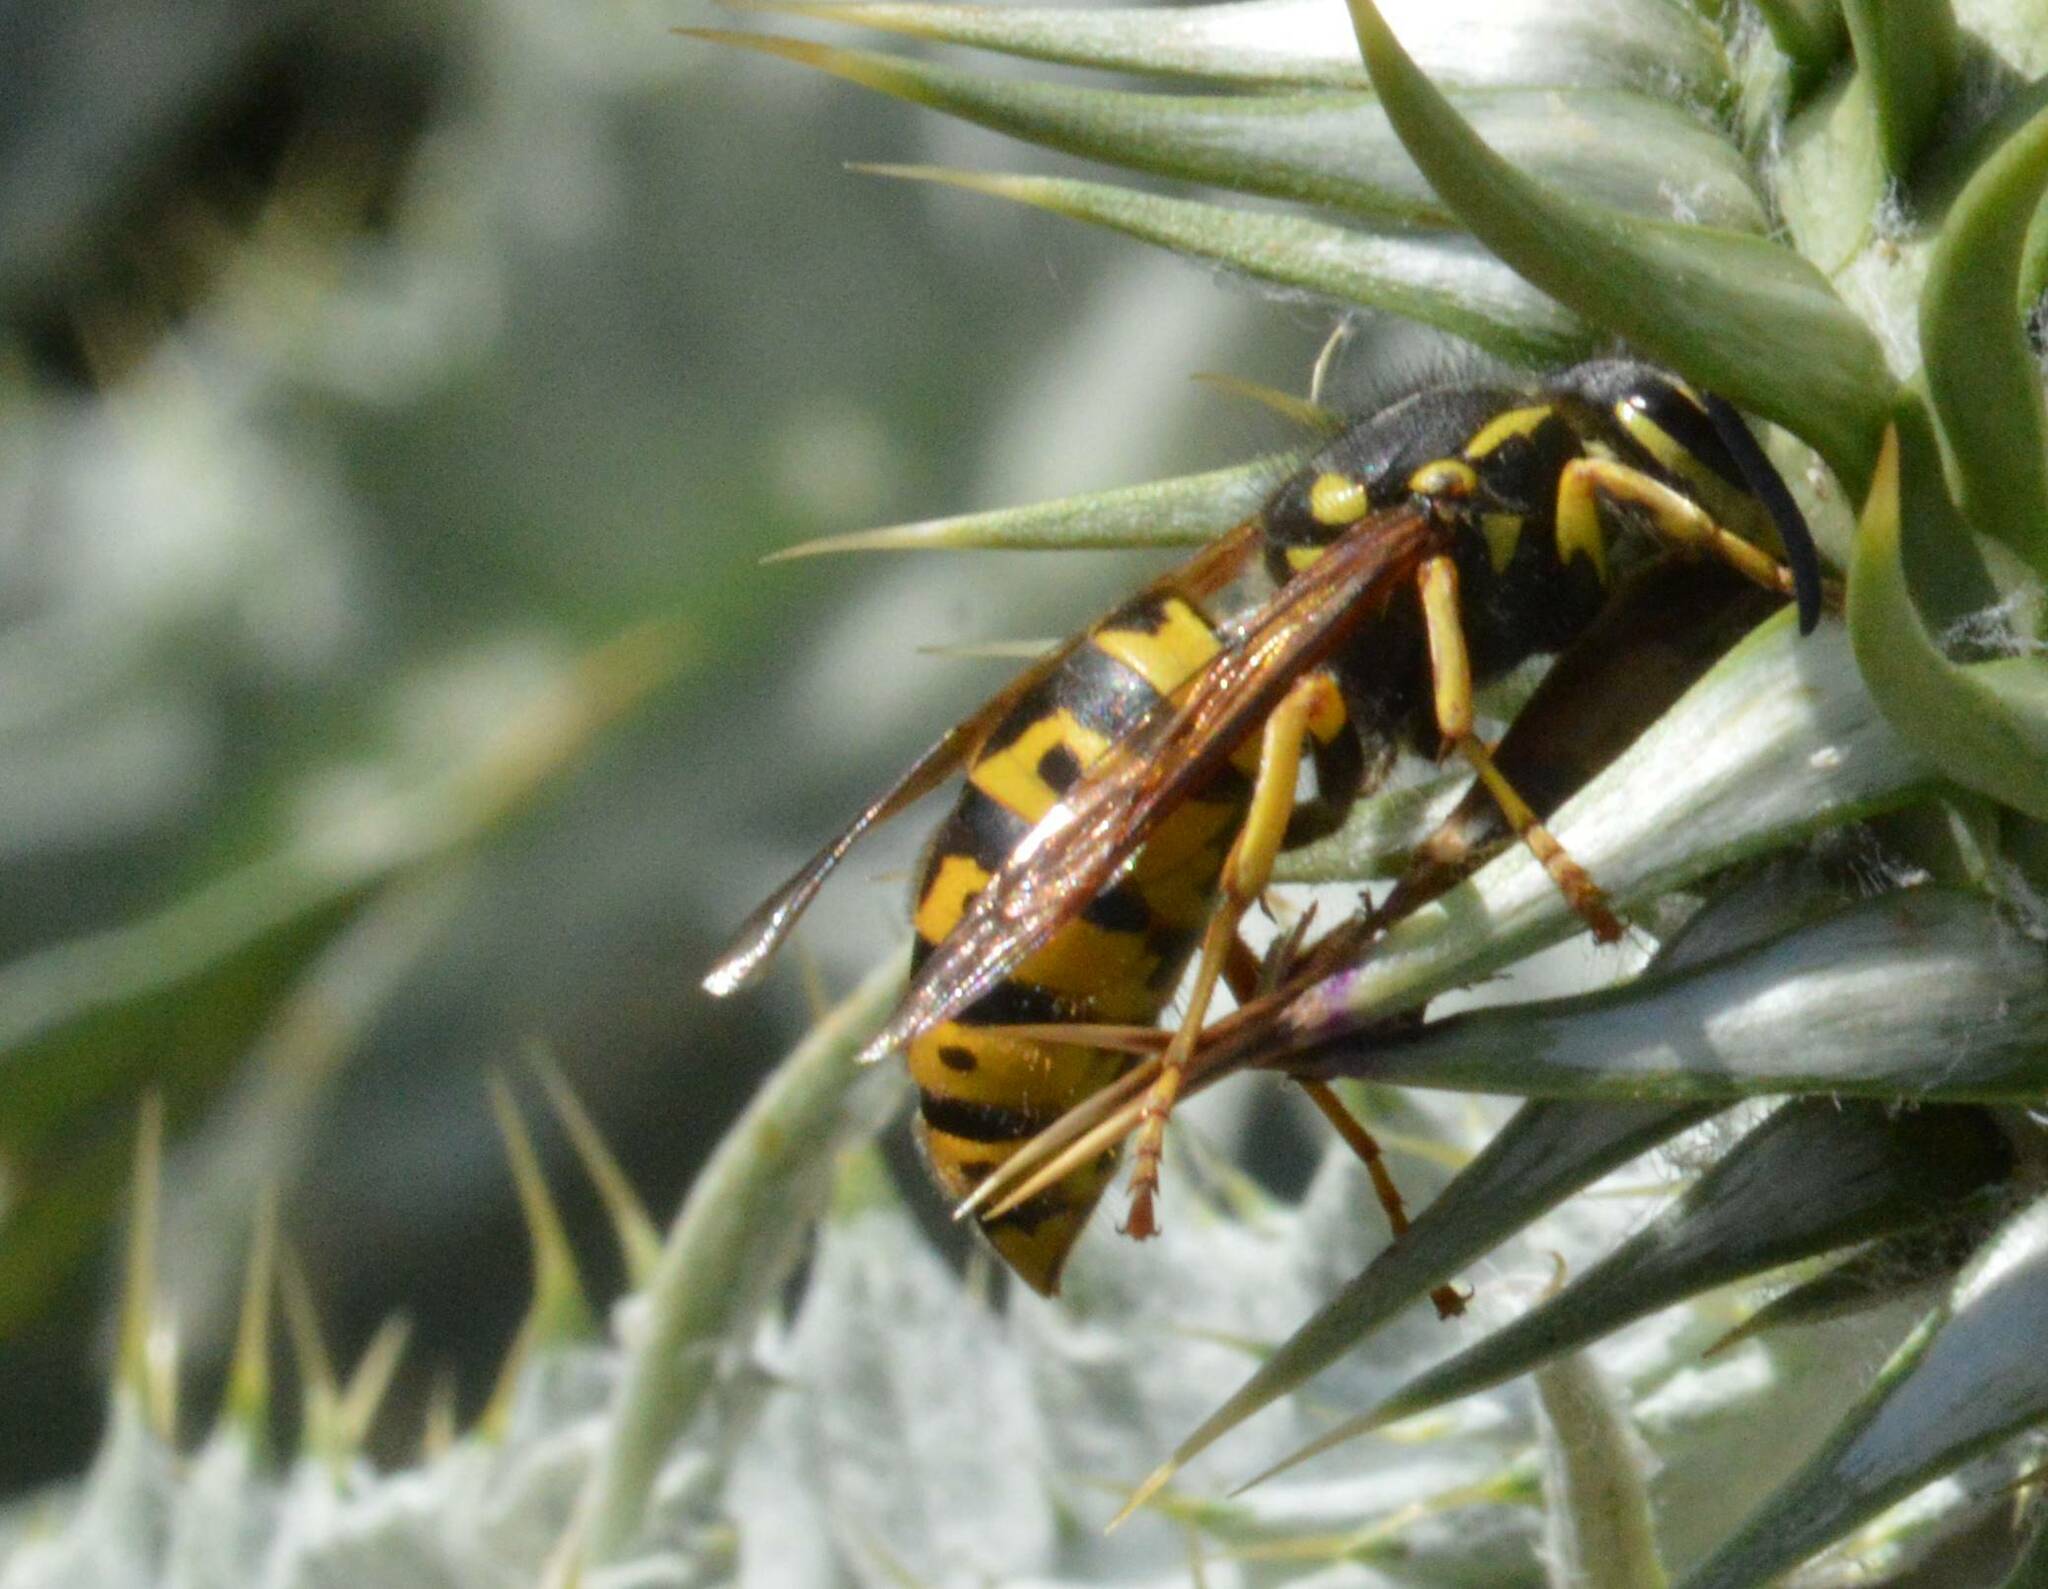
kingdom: Animalia
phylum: Arthropoda
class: Insecta
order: Hymenoptera
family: Vespidae
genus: Vespula
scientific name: Vespula germanica
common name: German wasp
